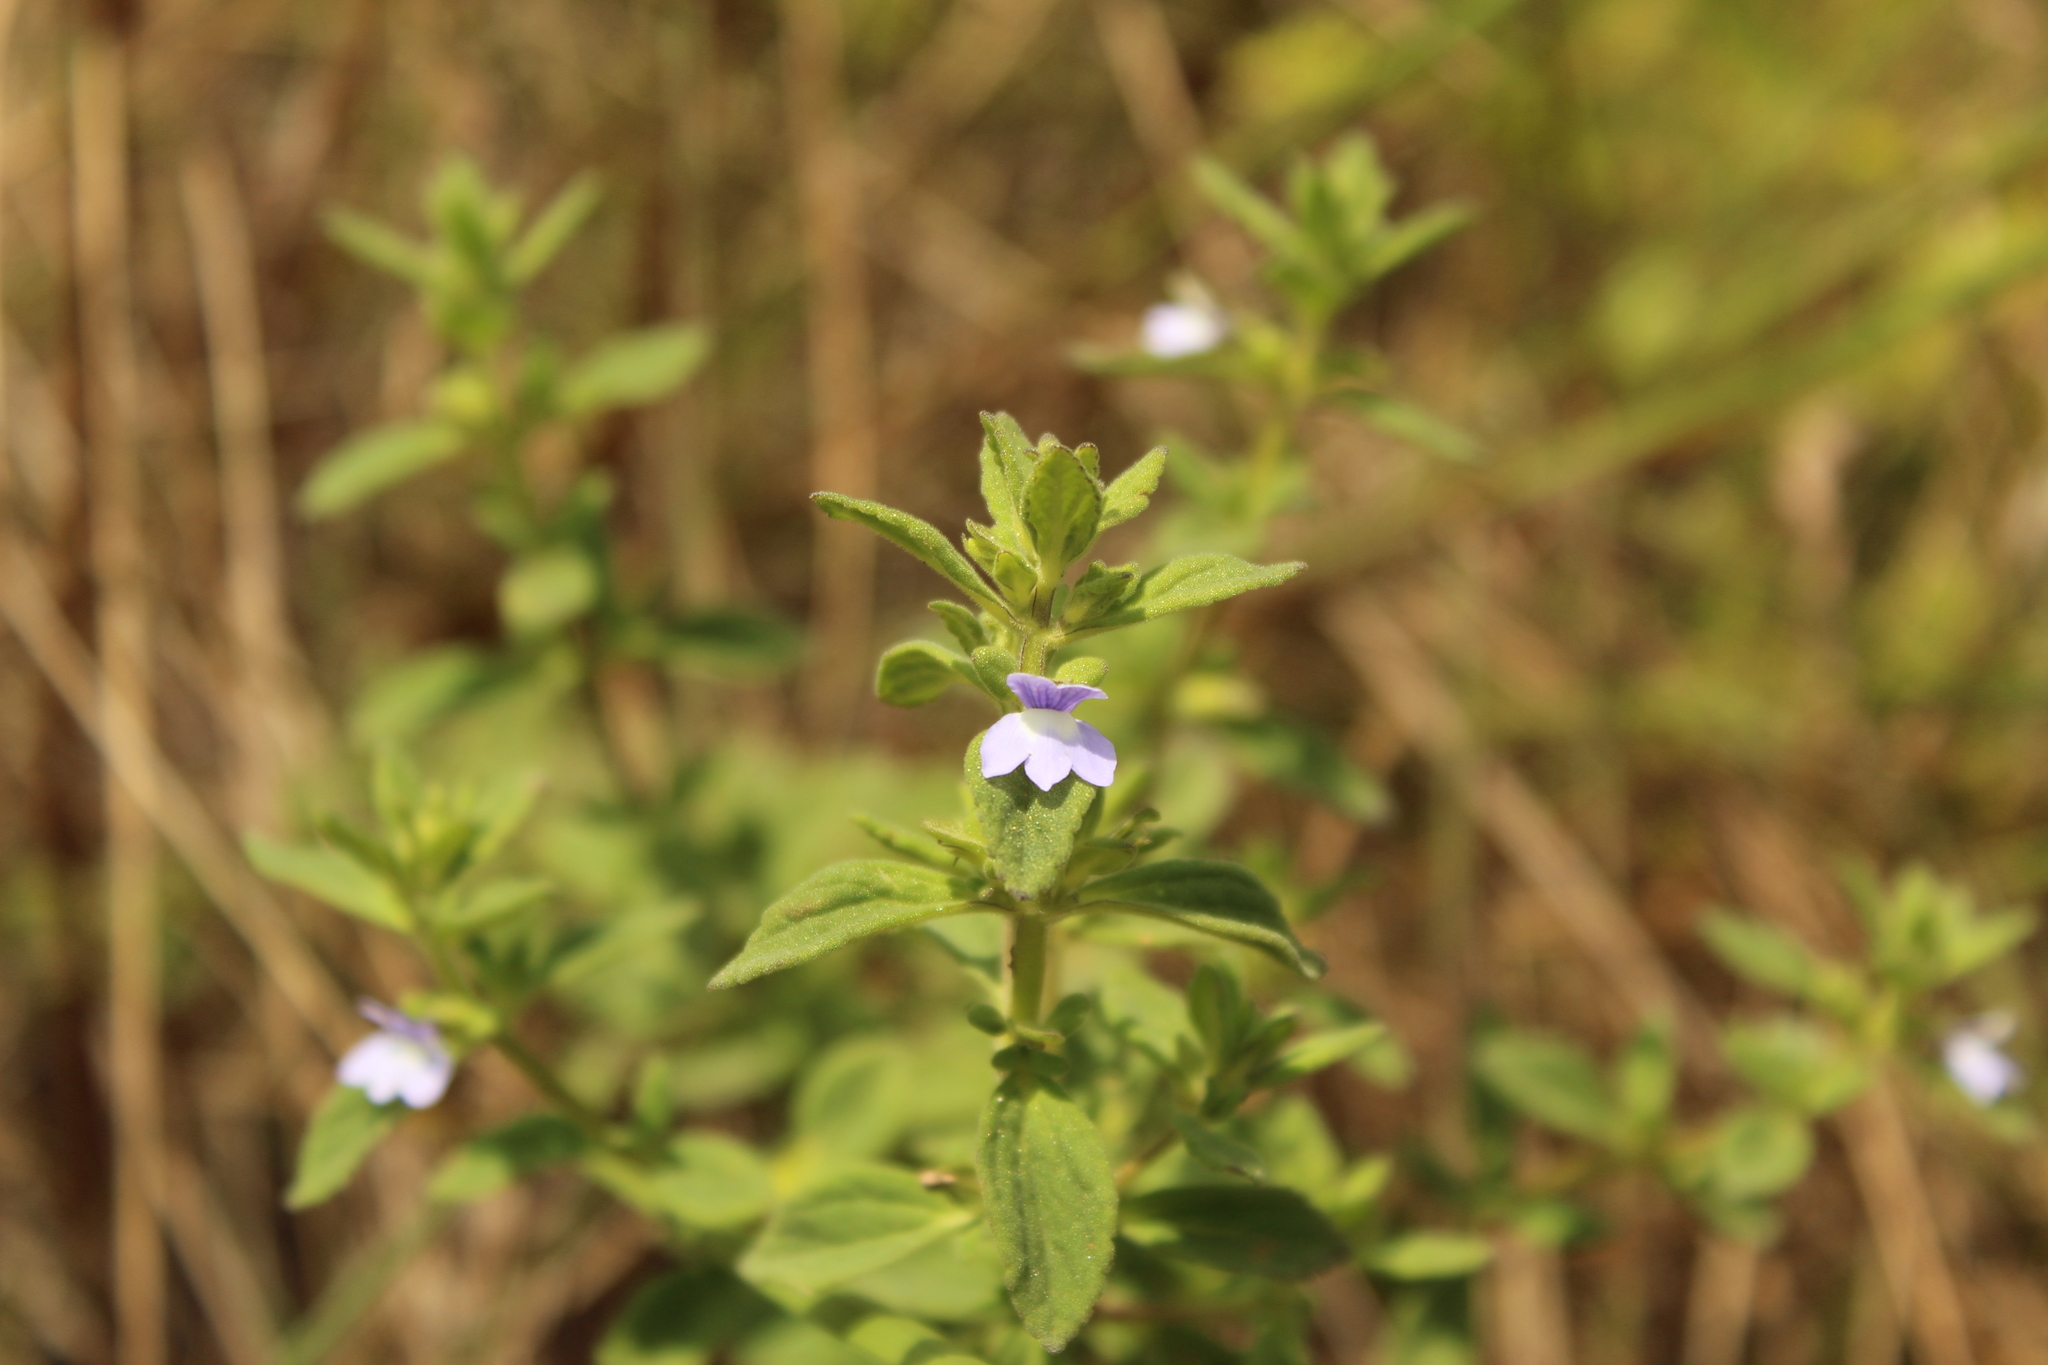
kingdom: Plantae
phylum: Tracheophyta
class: Magnoliopsida
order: Lamiales
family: Plantaginaceae
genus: Matourea
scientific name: Matourea erecta
